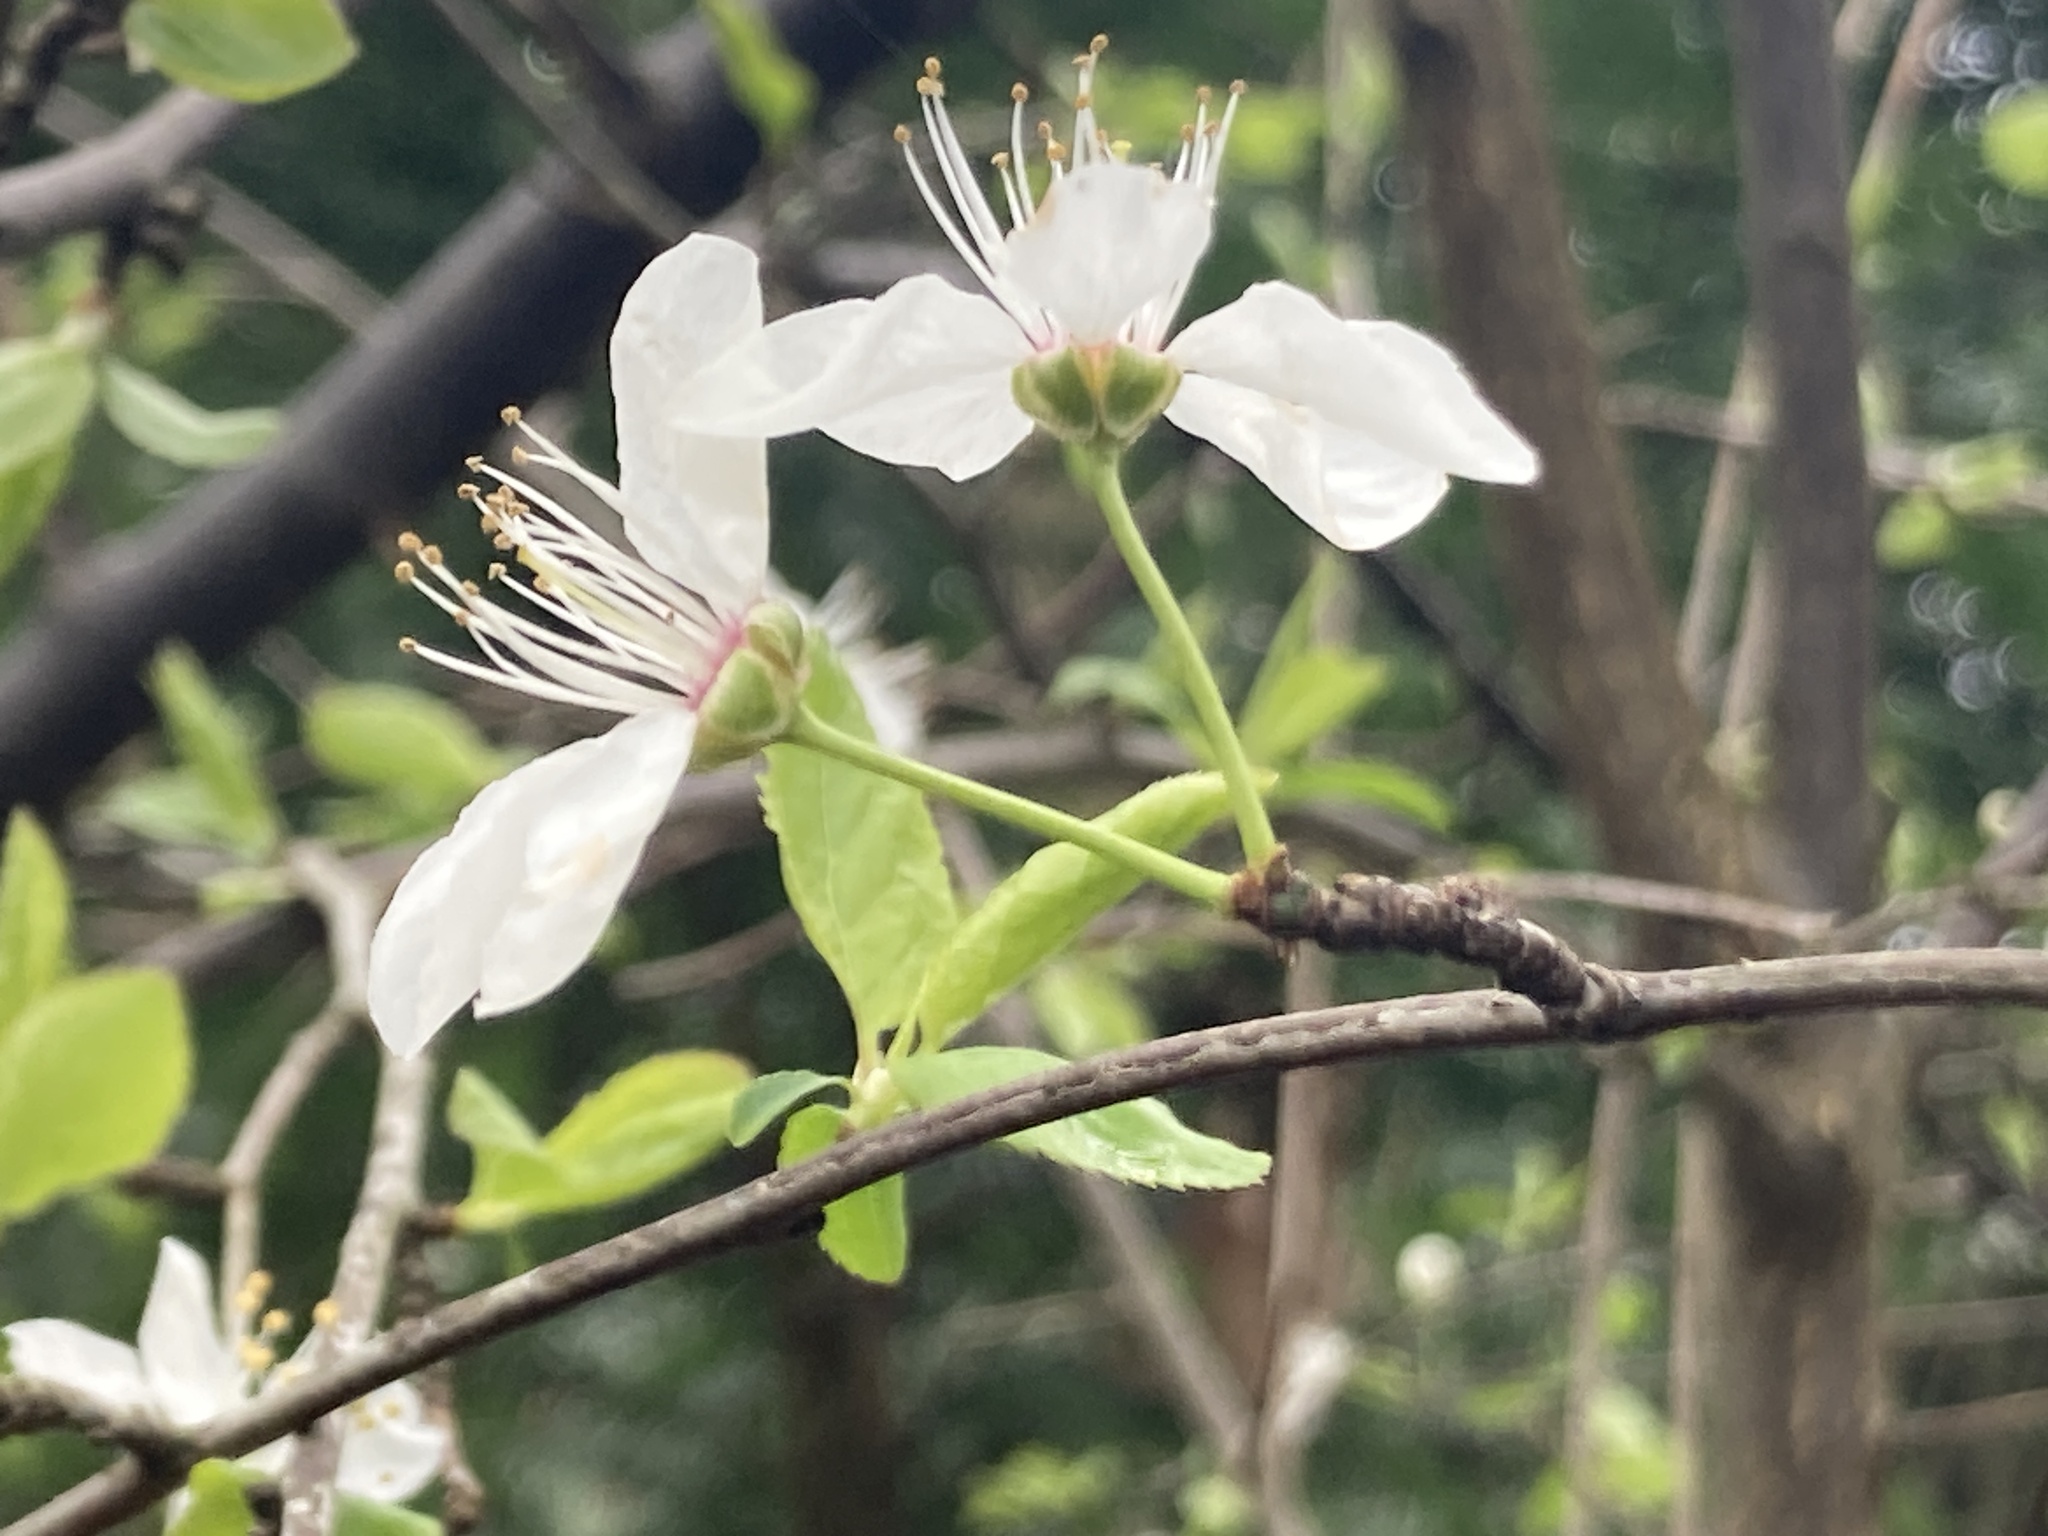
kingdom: Plantae
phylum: Tracheophyta
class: Magnoliopsida
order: Rosales
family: Rosaceae
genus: Prunus
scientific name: Prunus cerasifera
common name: Cherry plum
